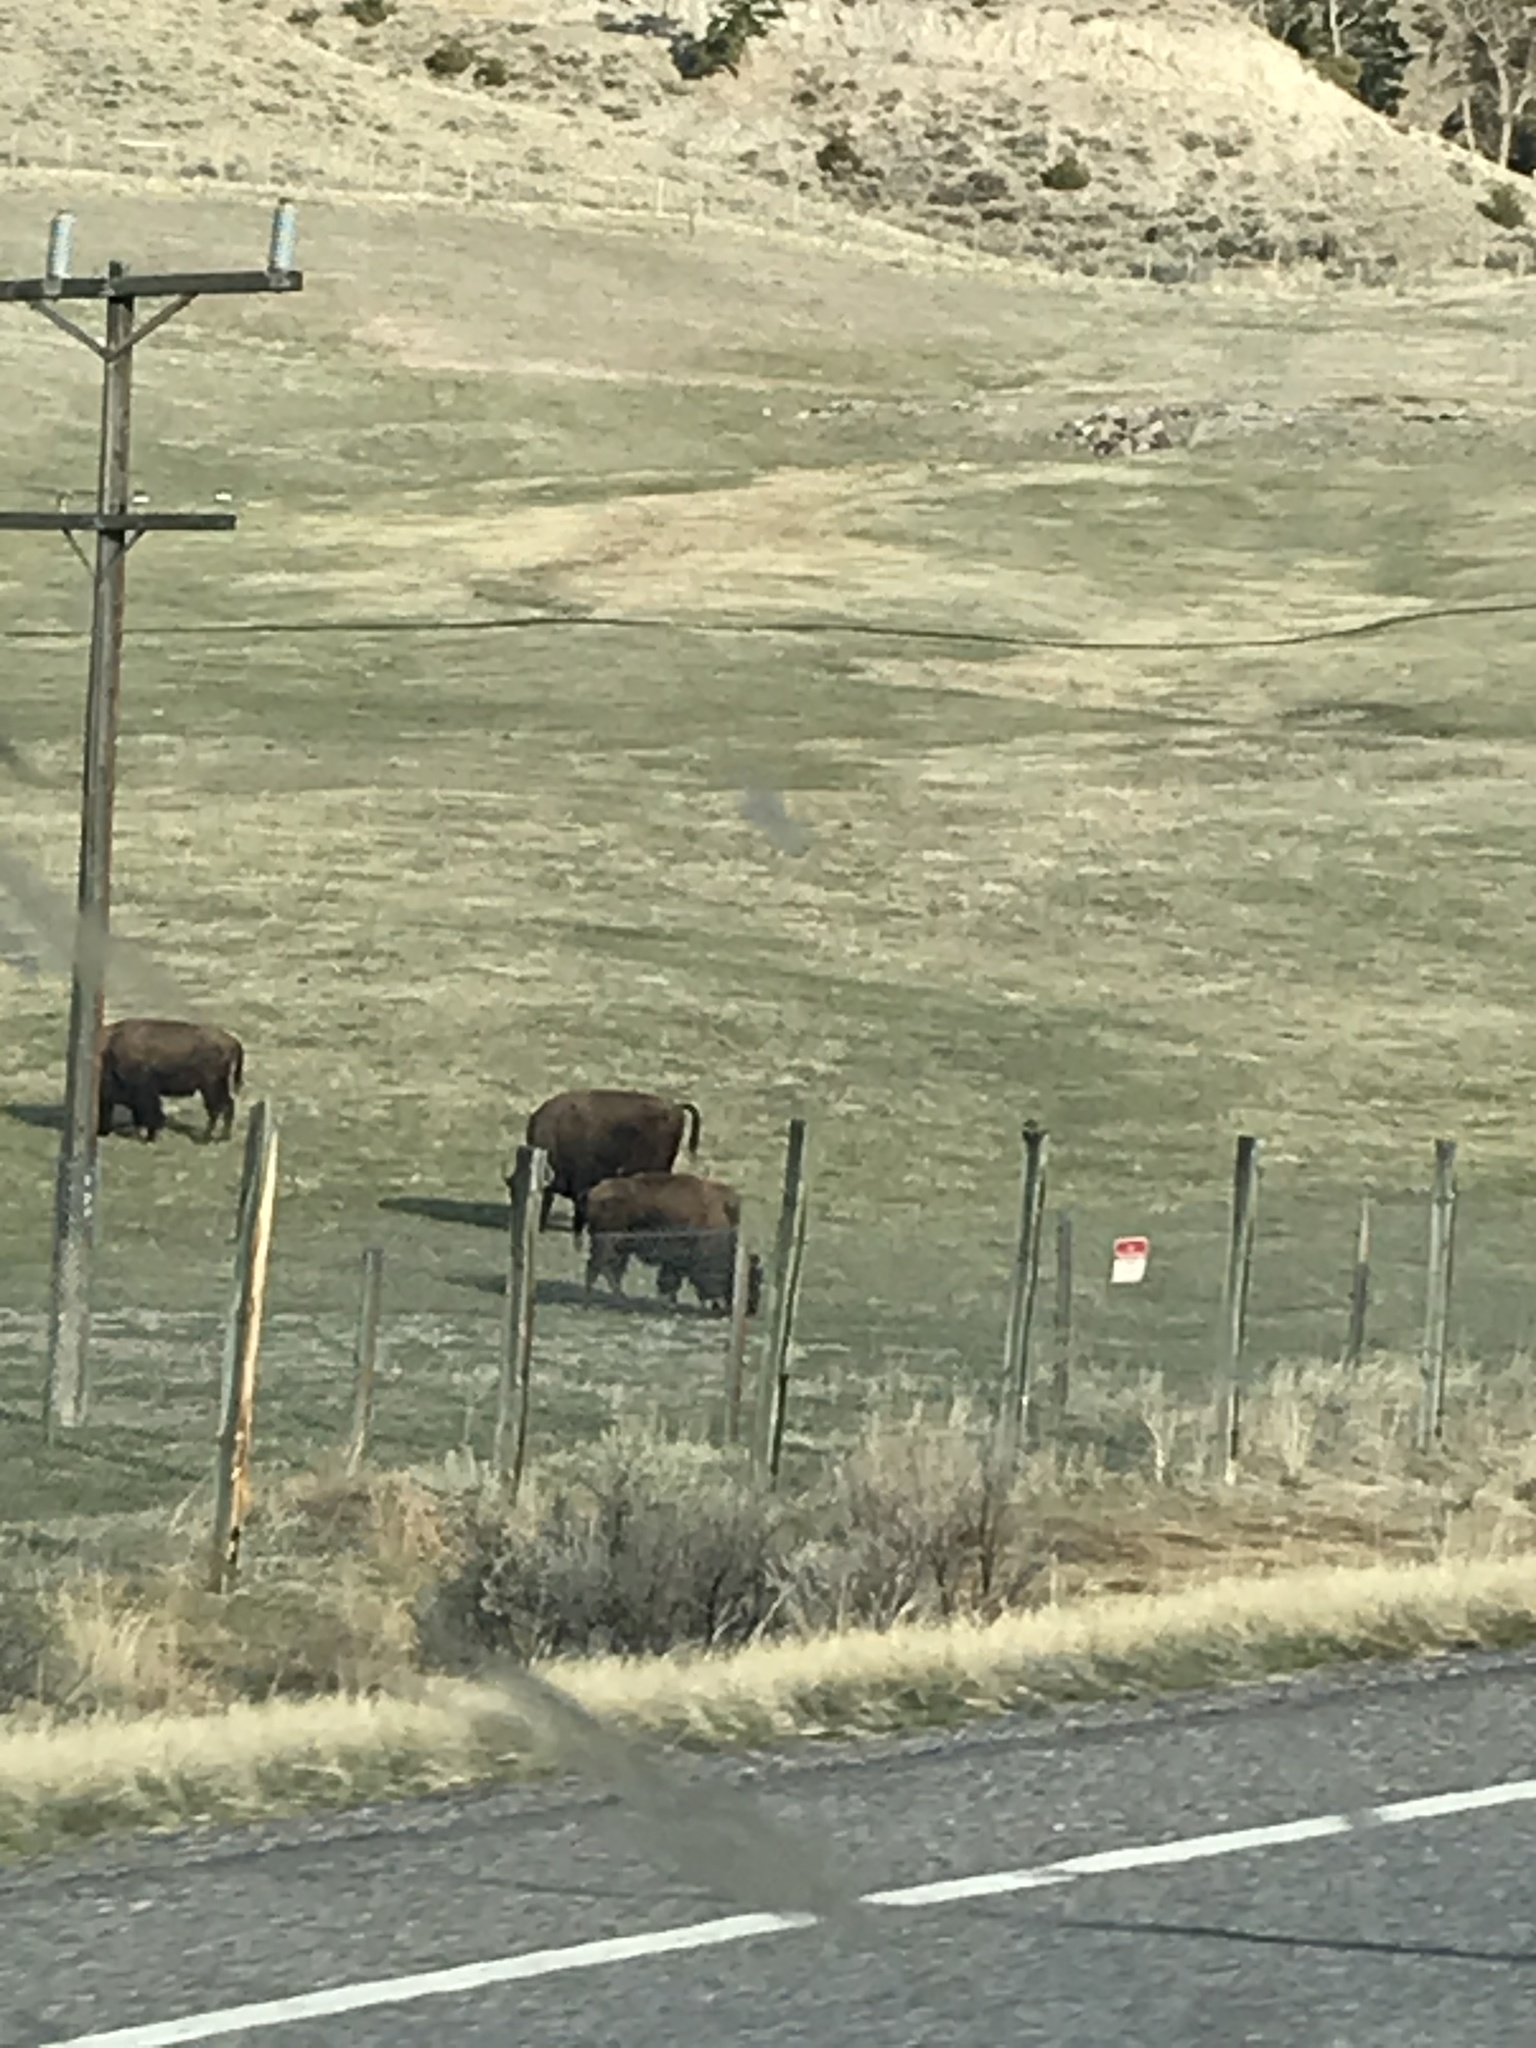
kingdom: Animalia
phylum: Chordata
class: Mammalia
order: Artiodactyla
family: Bovidae
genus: Bison
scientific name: Bison bison
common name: American bison
